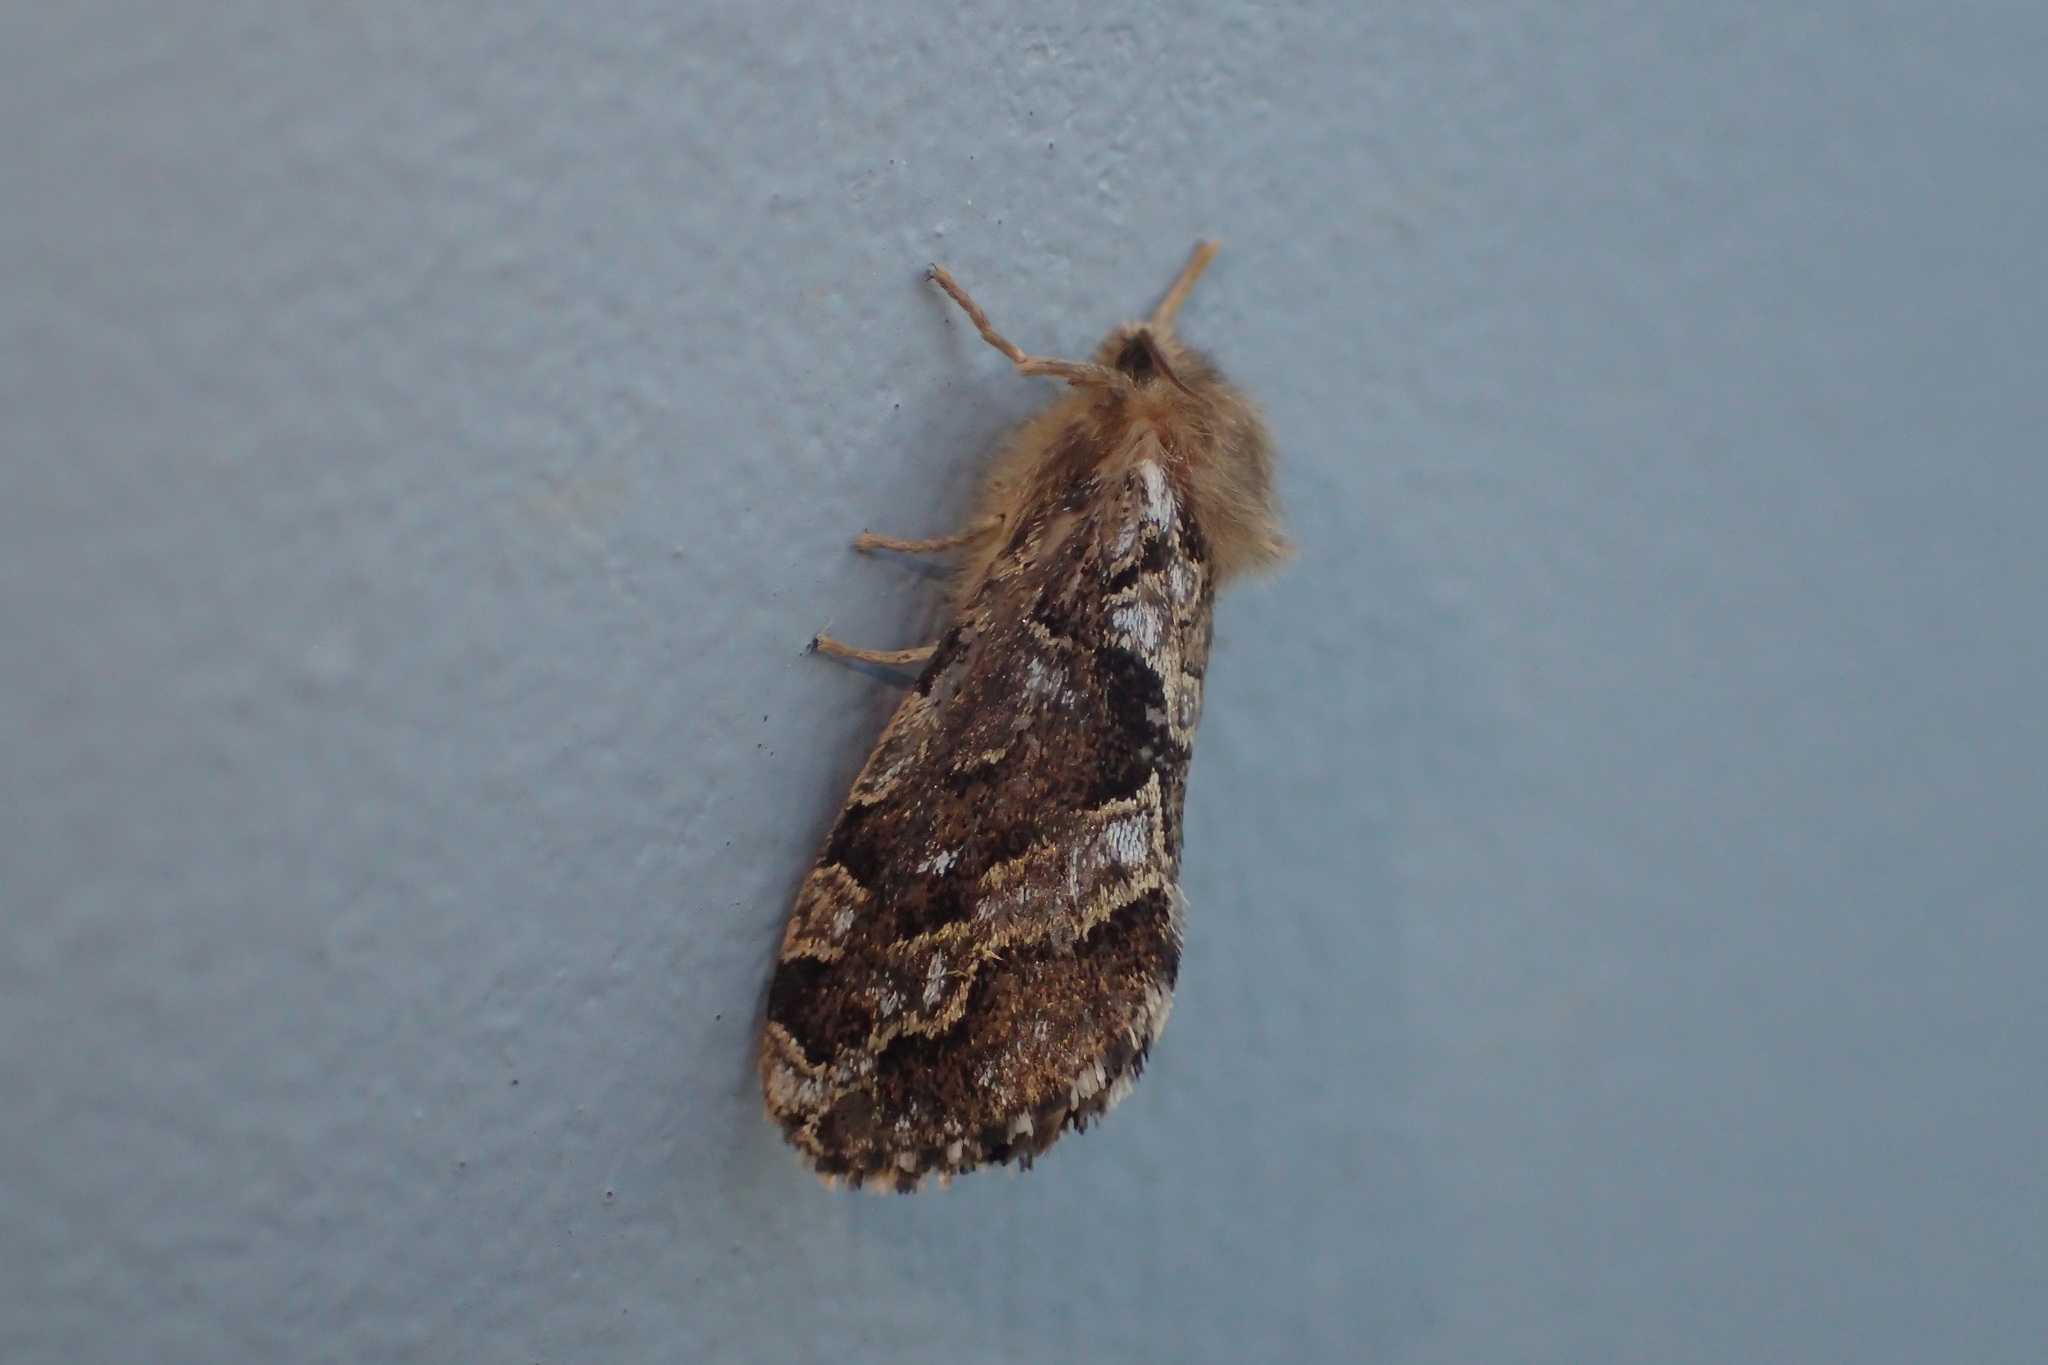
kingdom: Animalia
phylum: Arthropoda
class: Insecta
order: Lepidoptera
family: Hepialidae
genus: Korscheltellus
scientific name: Korscheltellus gracilis
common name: Conifer swift moth
